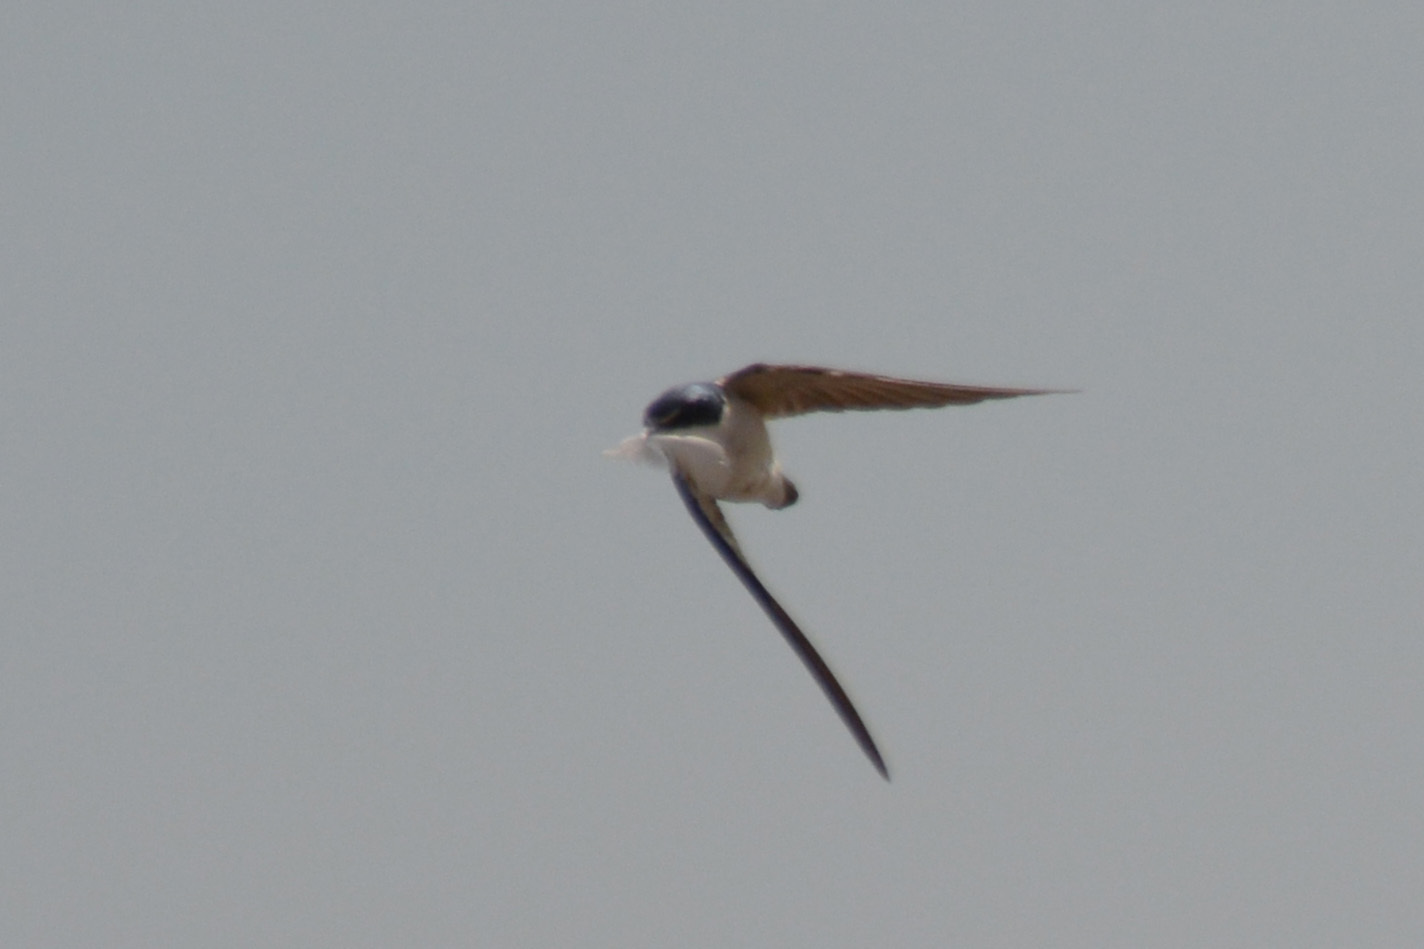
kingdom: Animalia
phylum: Chordata
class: Aves
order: Passeriformes
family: Hirundinidae
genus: Tachycineta
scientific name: Tachycineta leucorrhoa
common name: White-rumped swallow
